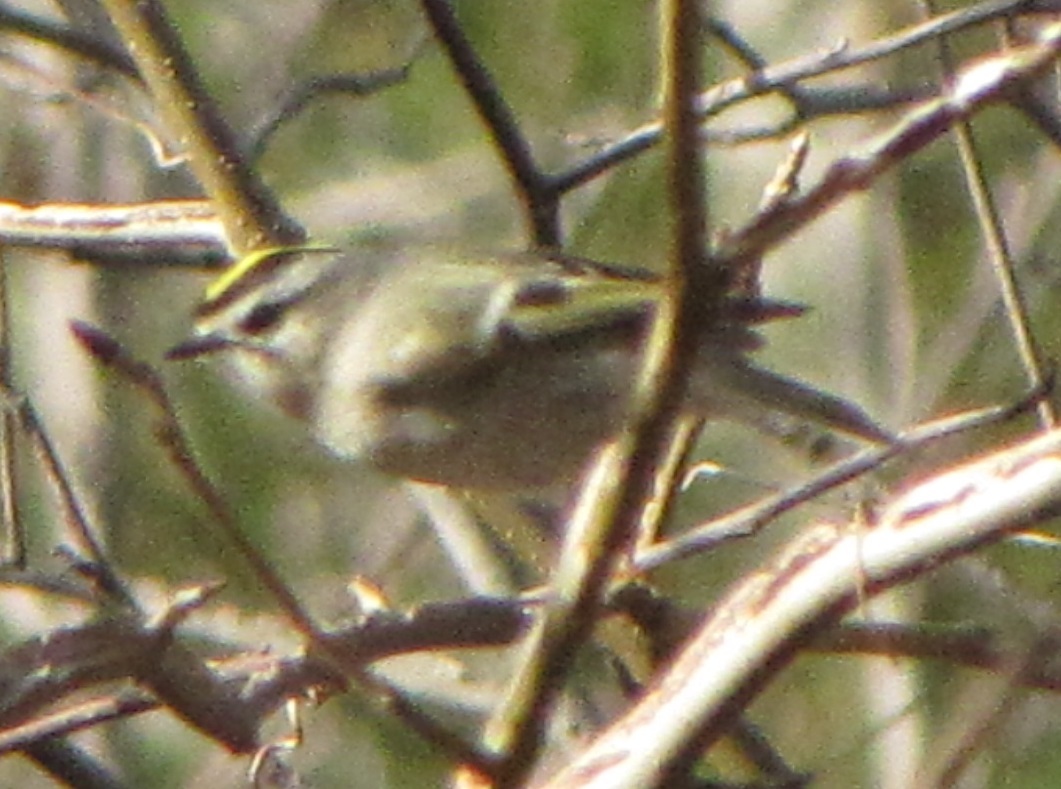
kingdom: Animalia
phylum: Chordata
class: Aves
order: Passeriformes
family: Regulidae
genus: Regulus
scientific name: Regulus satrapa
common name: Golden-crowned kinglet
